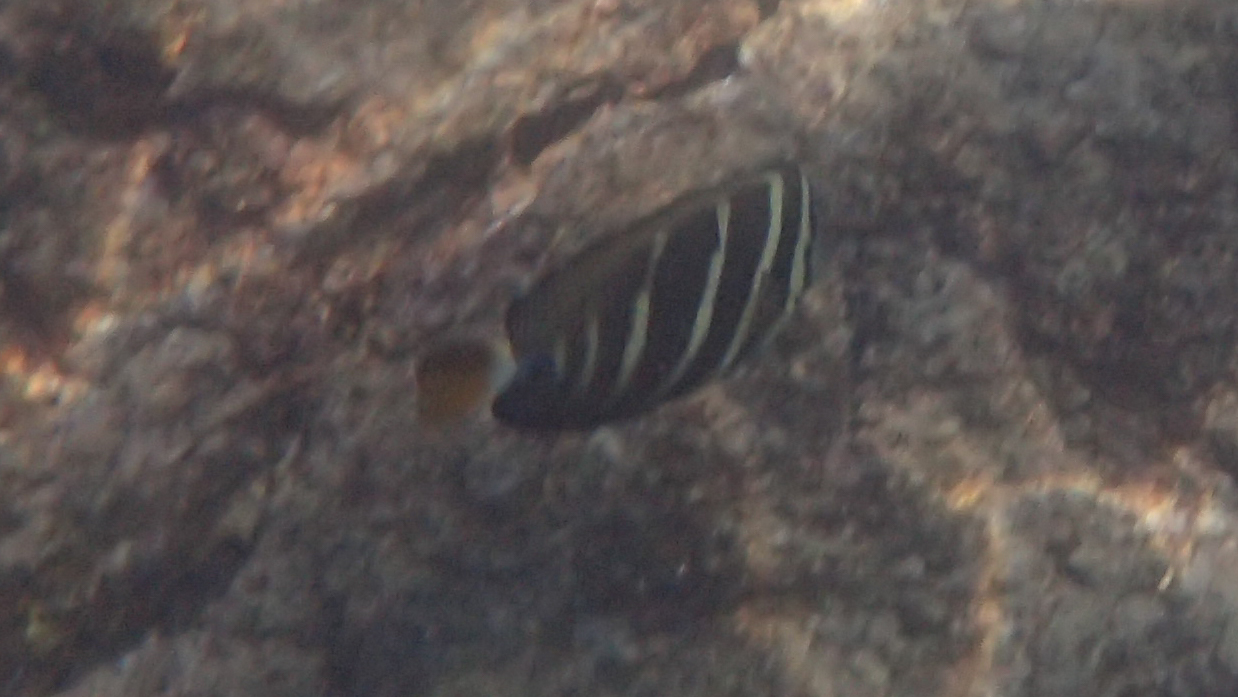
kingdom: Animalia
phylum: Chordata
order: Perciformes
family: Acanthuridae
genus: Zebrasoma
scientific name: Zebrasoma veliferum
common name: Sailfin surgeonfish
